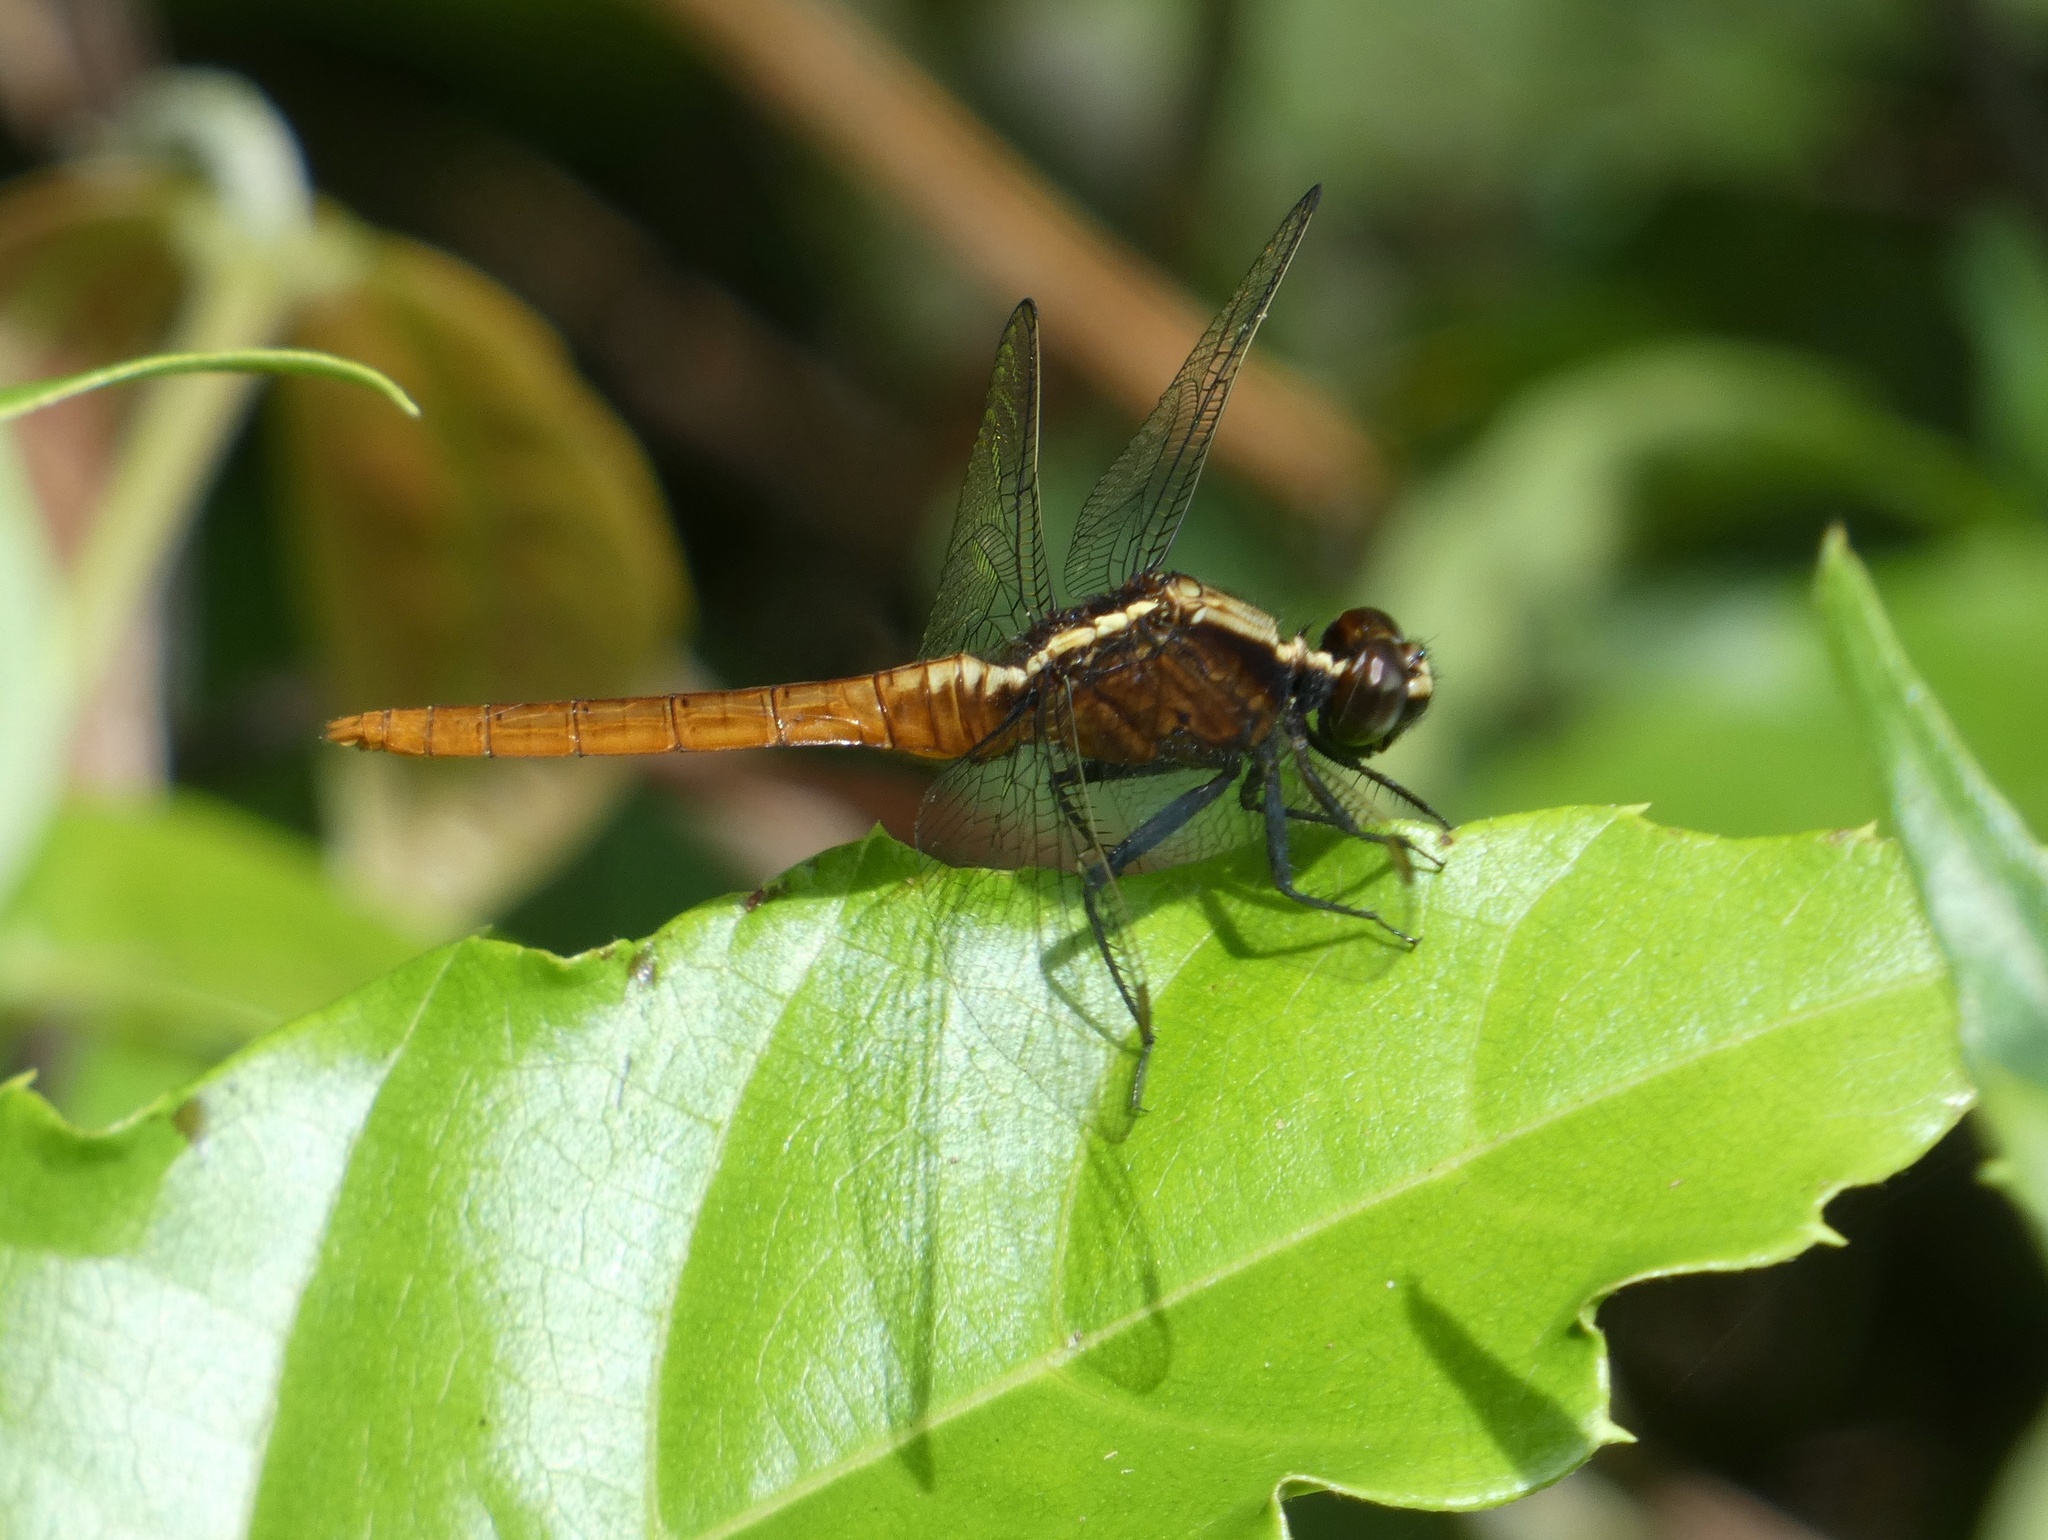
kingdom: Animalia
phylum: Arthropoda
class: Insecta
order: Odonata
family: Libellulidae
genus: Erythemis
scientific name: Erythemis peruviana
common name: Flame-tailed pondhawk
